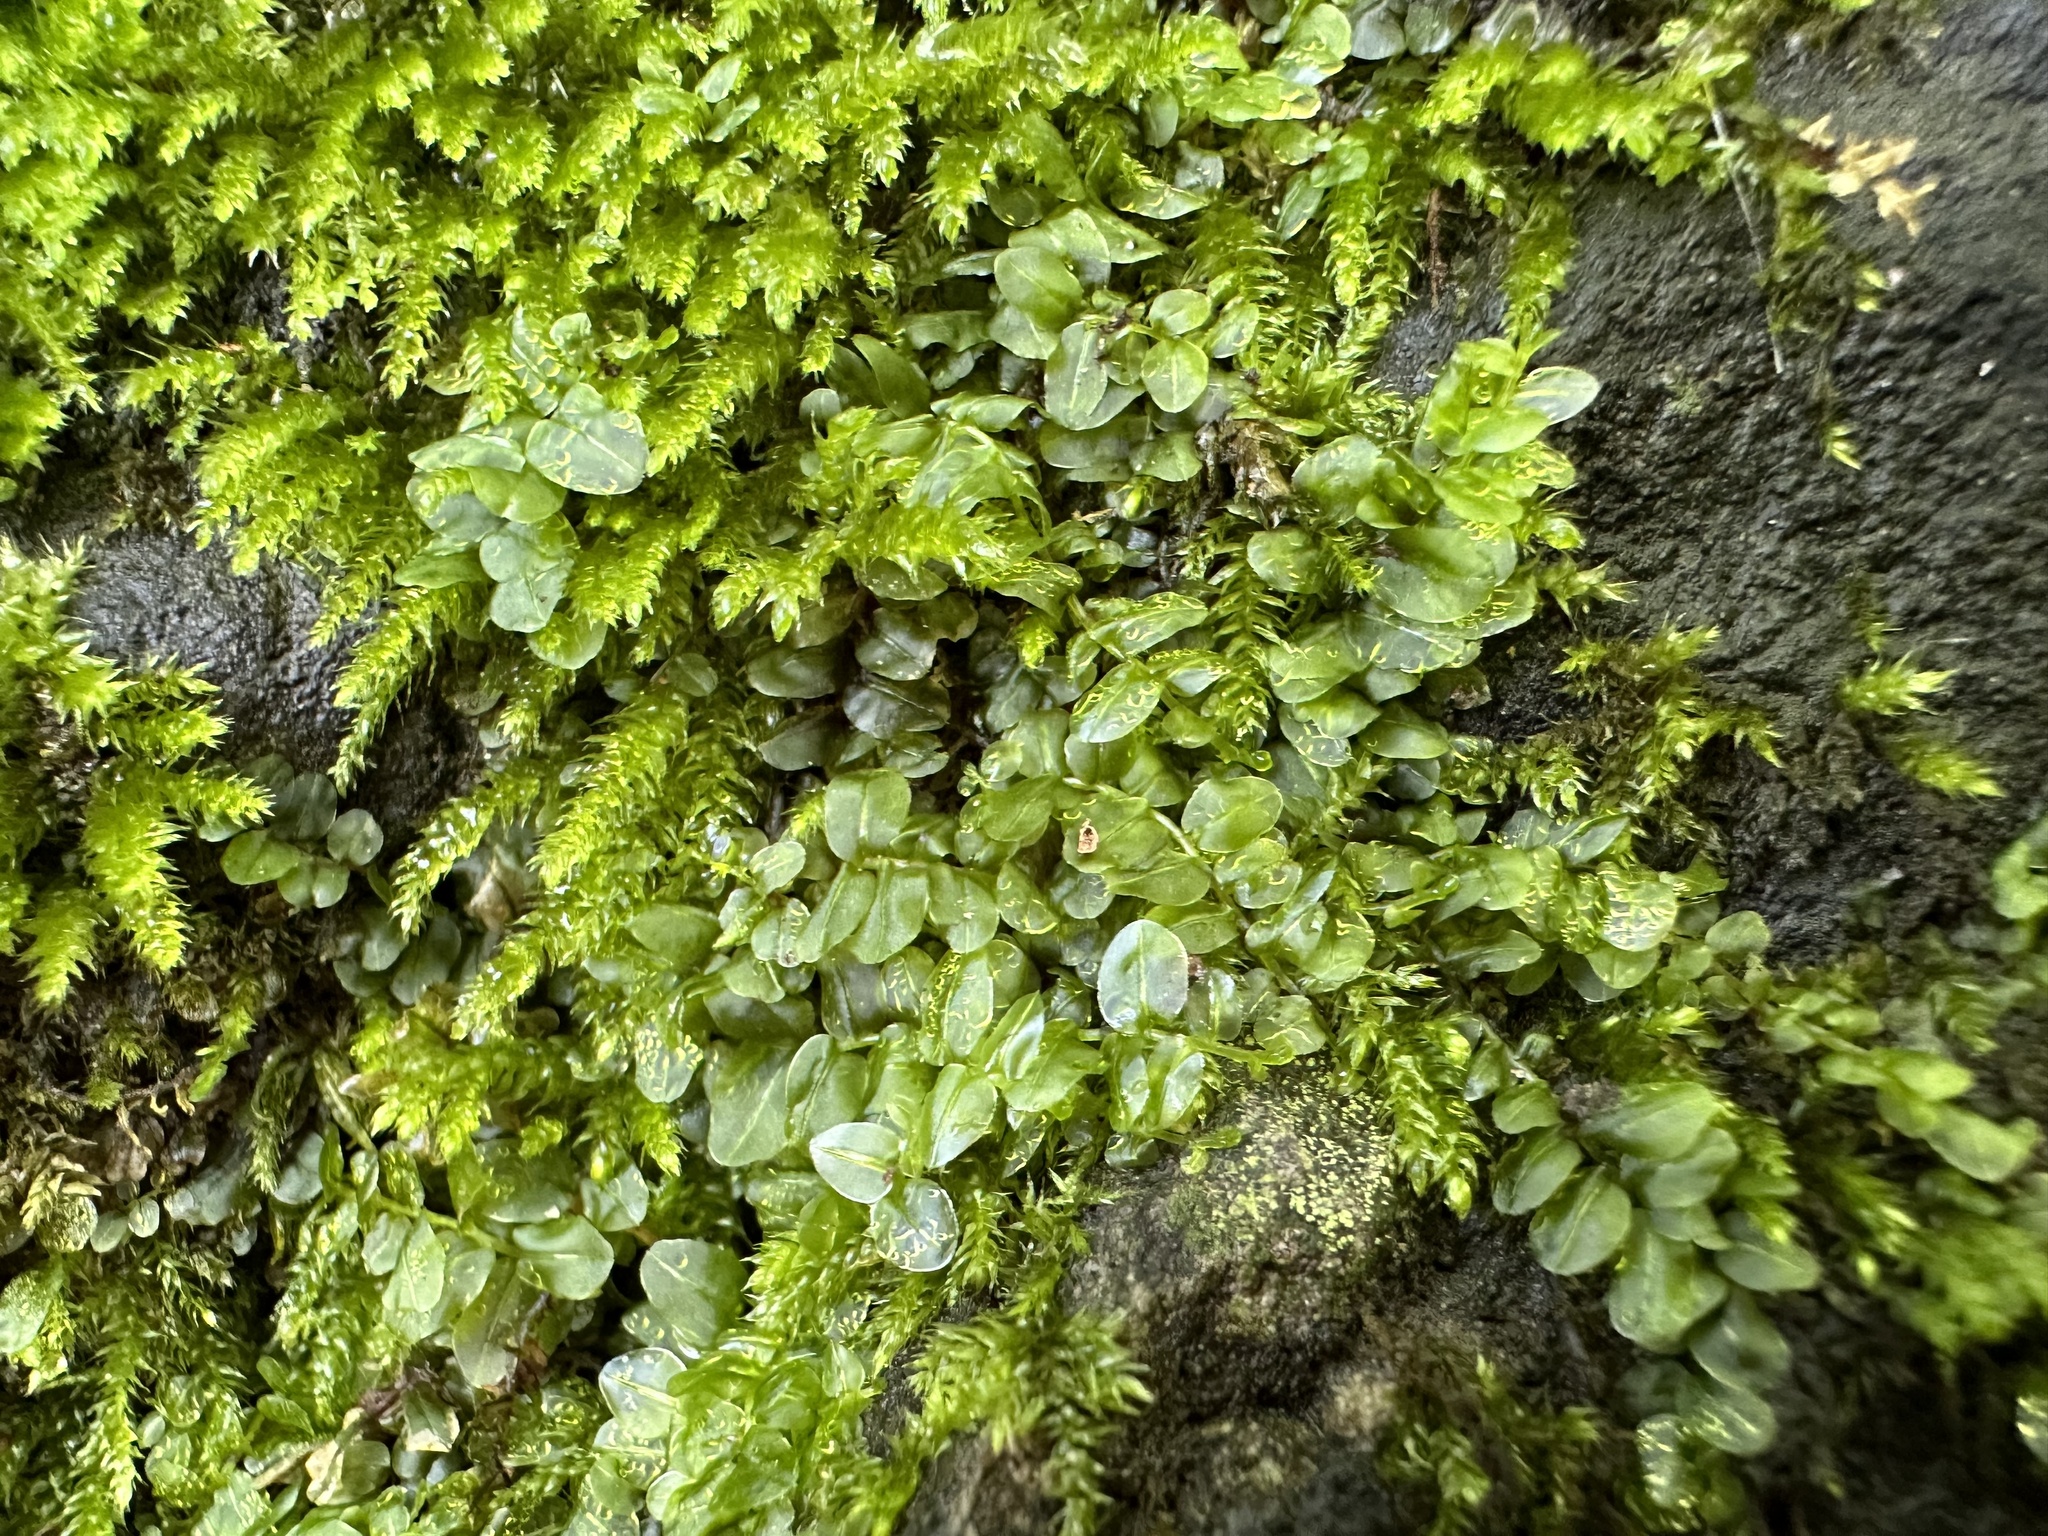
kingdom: Plantae
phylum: Bryophyta
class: Bryopsida
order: Bryales
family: Mniaceae
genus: Plagiomnium
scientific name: Plagiomnium rostratum
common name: Long-beaked leafy moss
